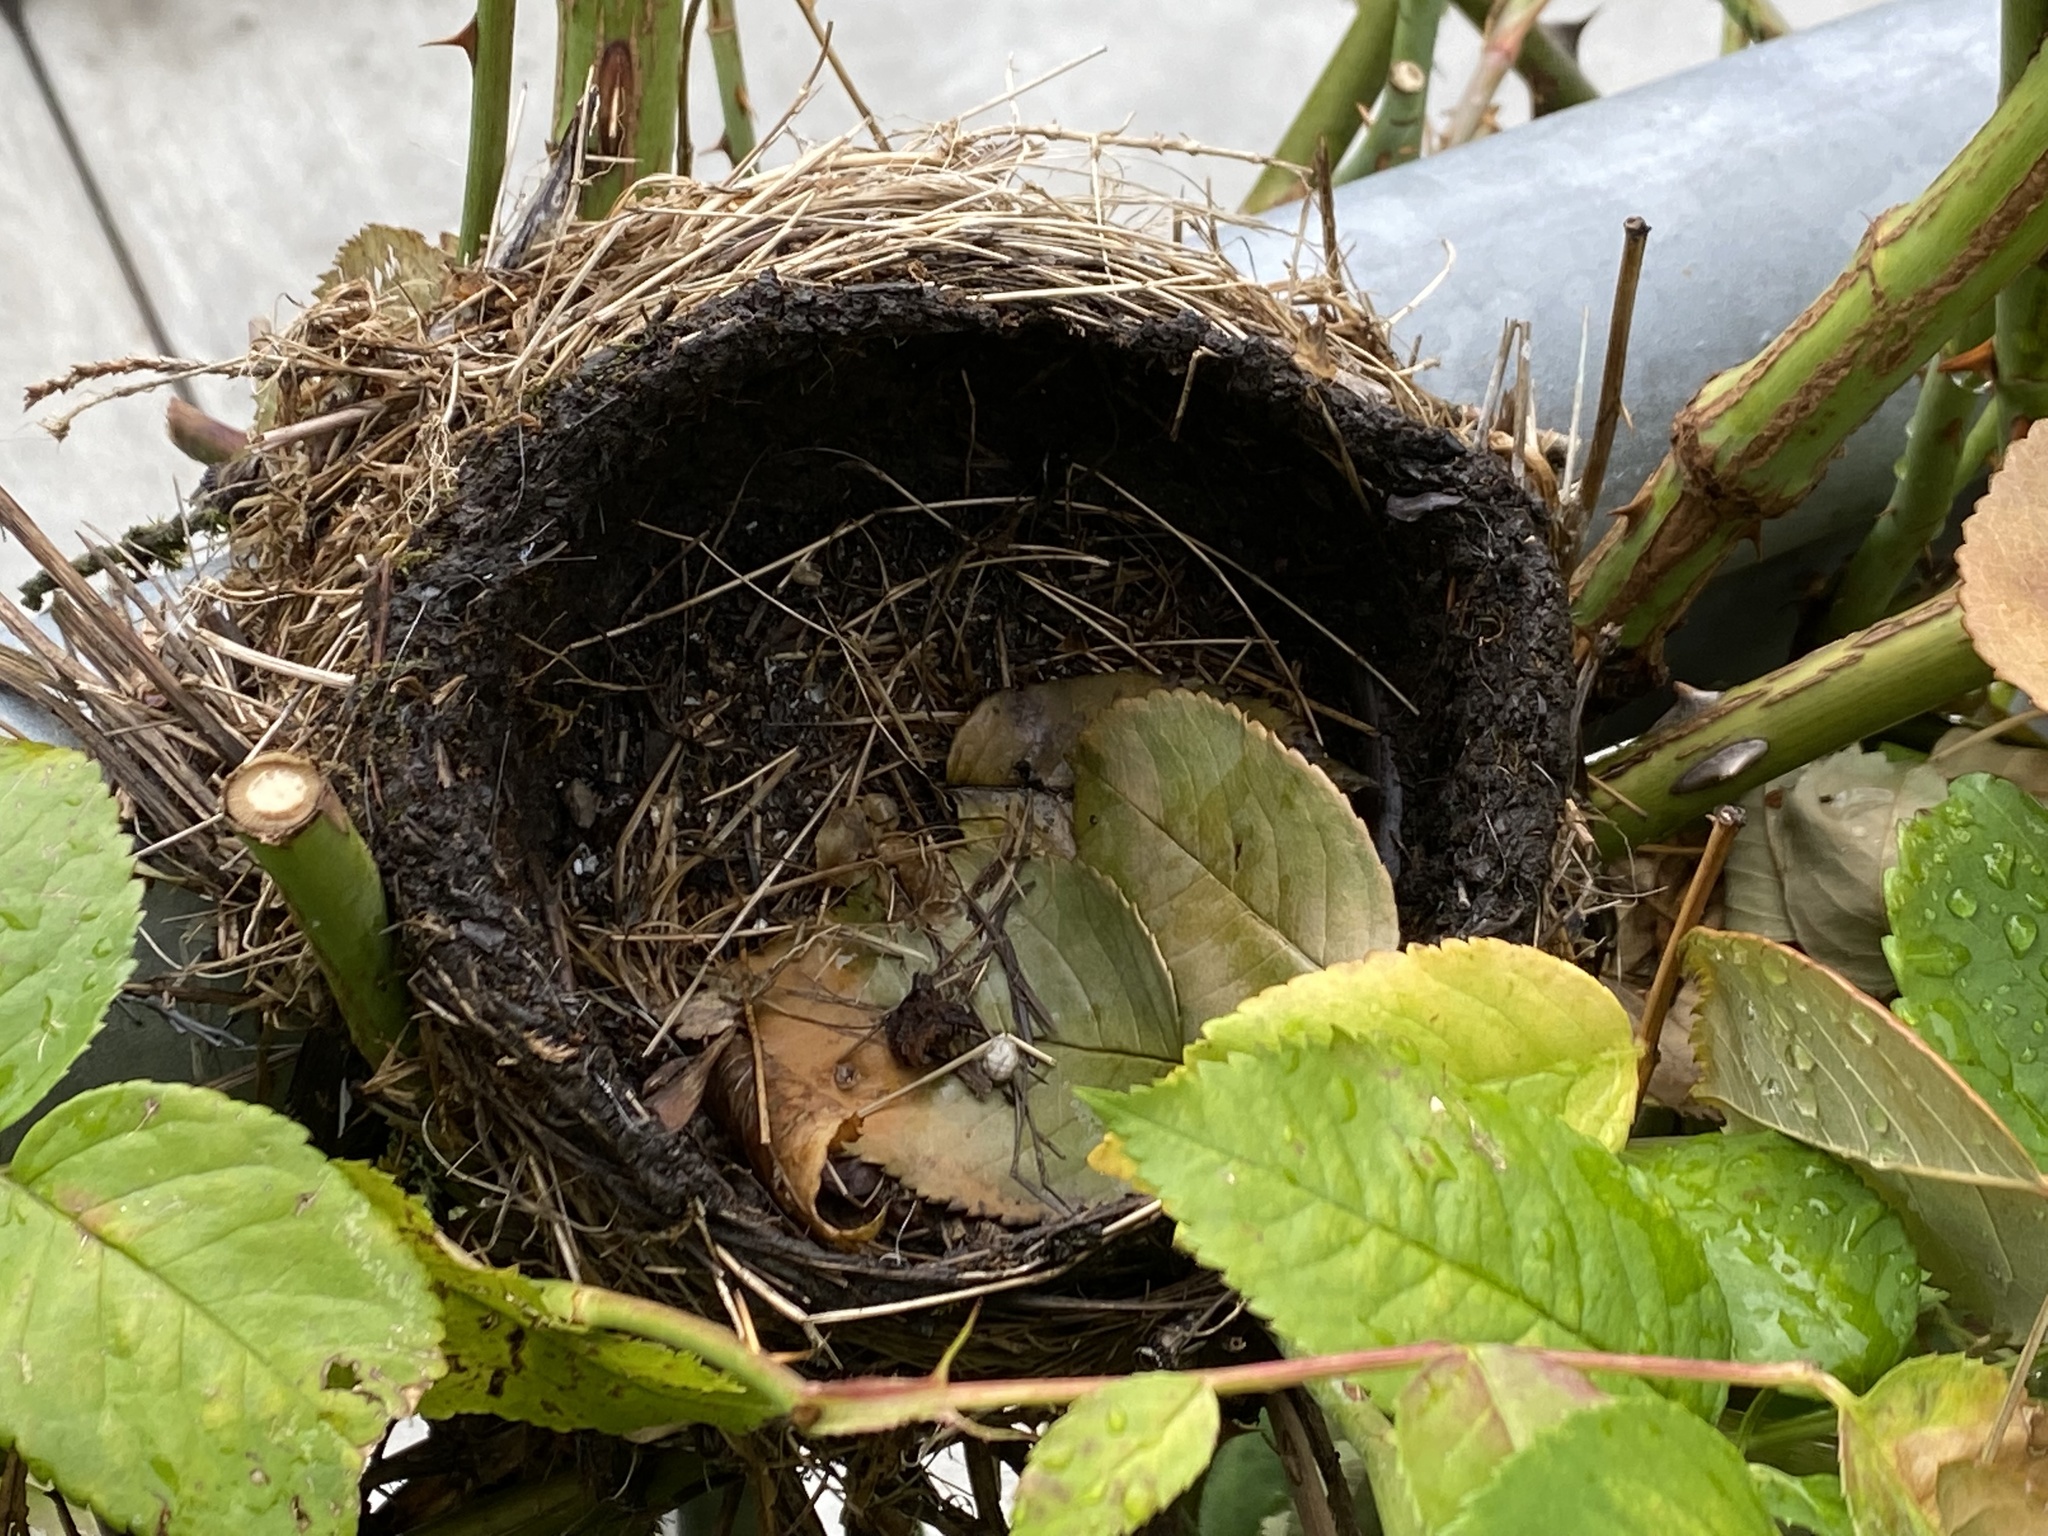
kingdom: Animalia
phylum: Chordata
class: Aves
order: Passeriformes
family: Turdidae
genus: Turdus
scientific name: Turdus migratorius
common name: American robin
